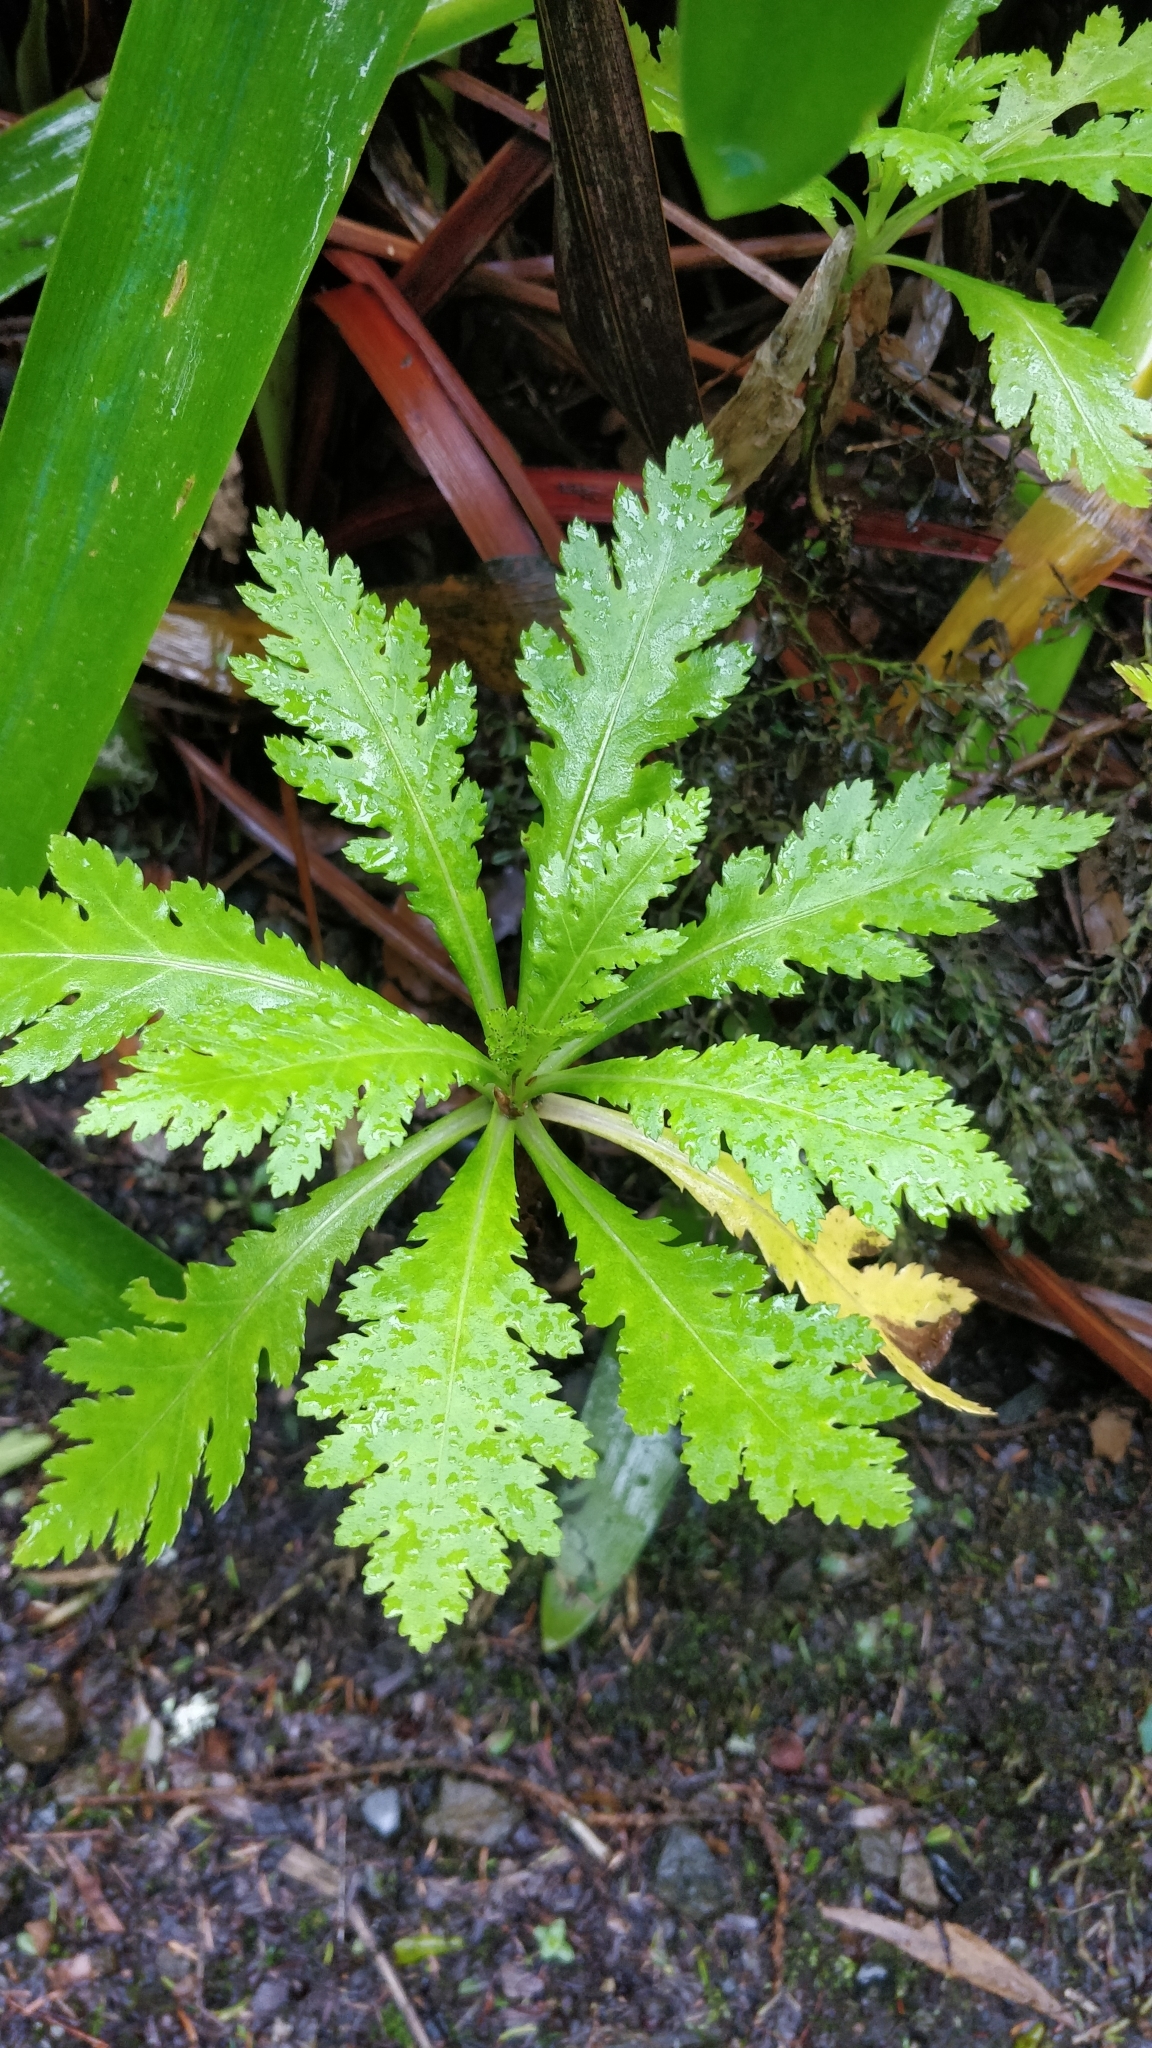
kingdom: Plantae
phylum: Tracheophyta
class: Magnoliopsida
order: Asterales
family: Asteraceae
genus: Argyranthemum
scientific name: Argyranthemum pinnatifidum
